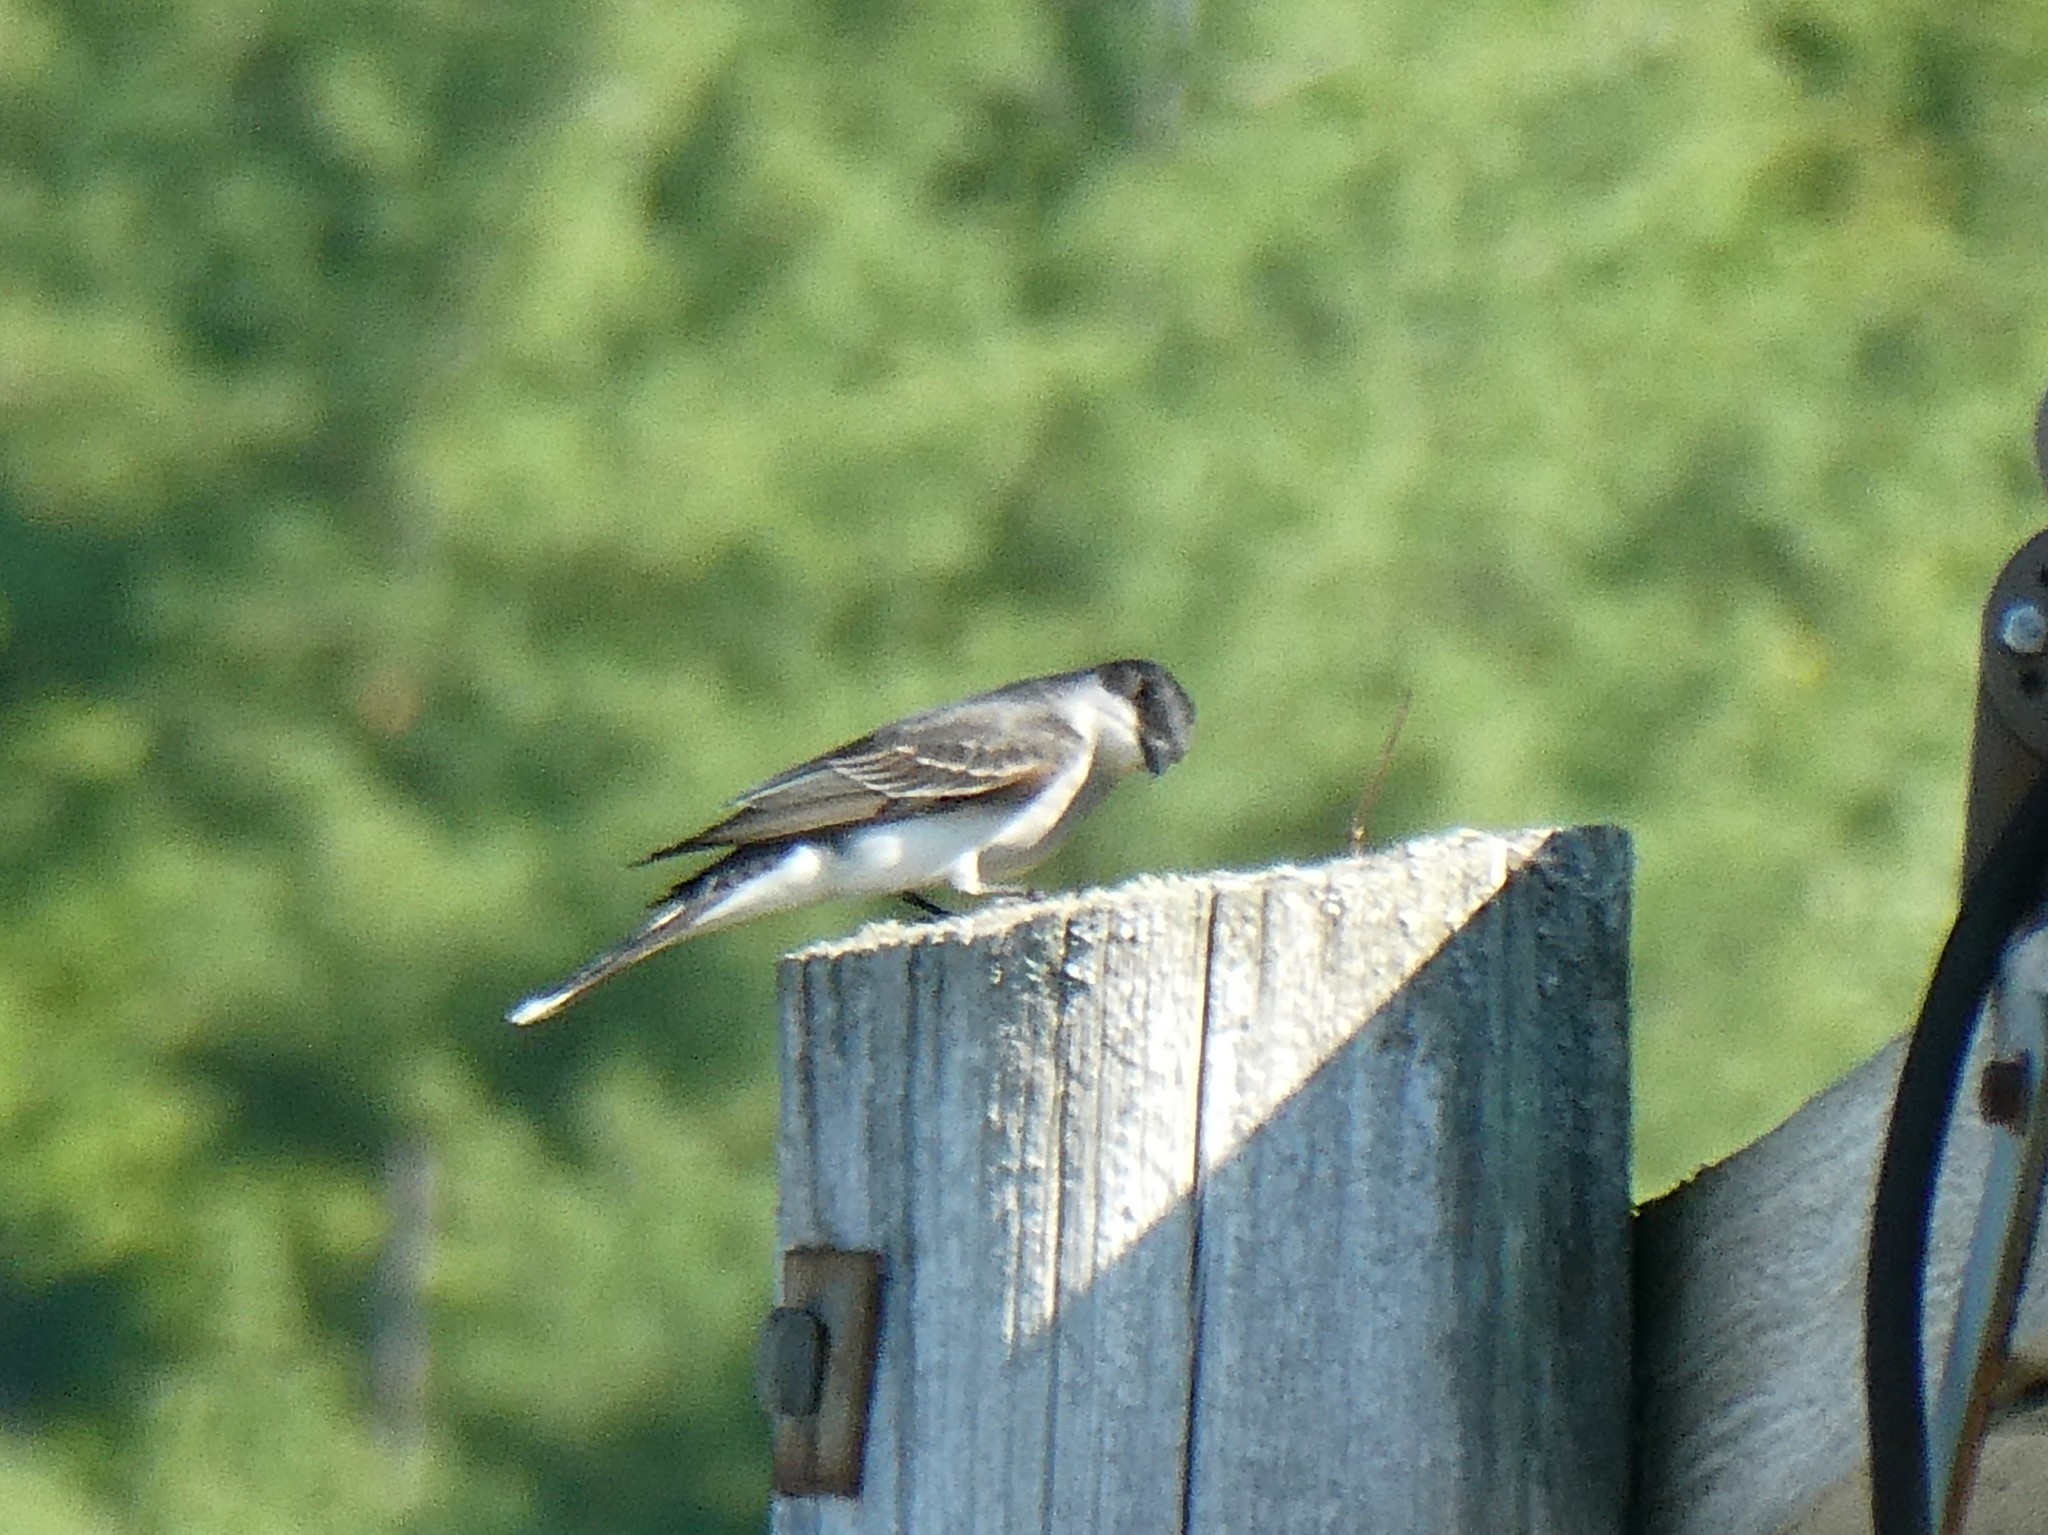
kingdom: Animalia
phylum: Chordata
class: Aves
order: Passeriformes
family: Tyrannidae
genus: Tyrannus
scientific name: Tyrannus tyrannus
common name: Eastern kingbird
